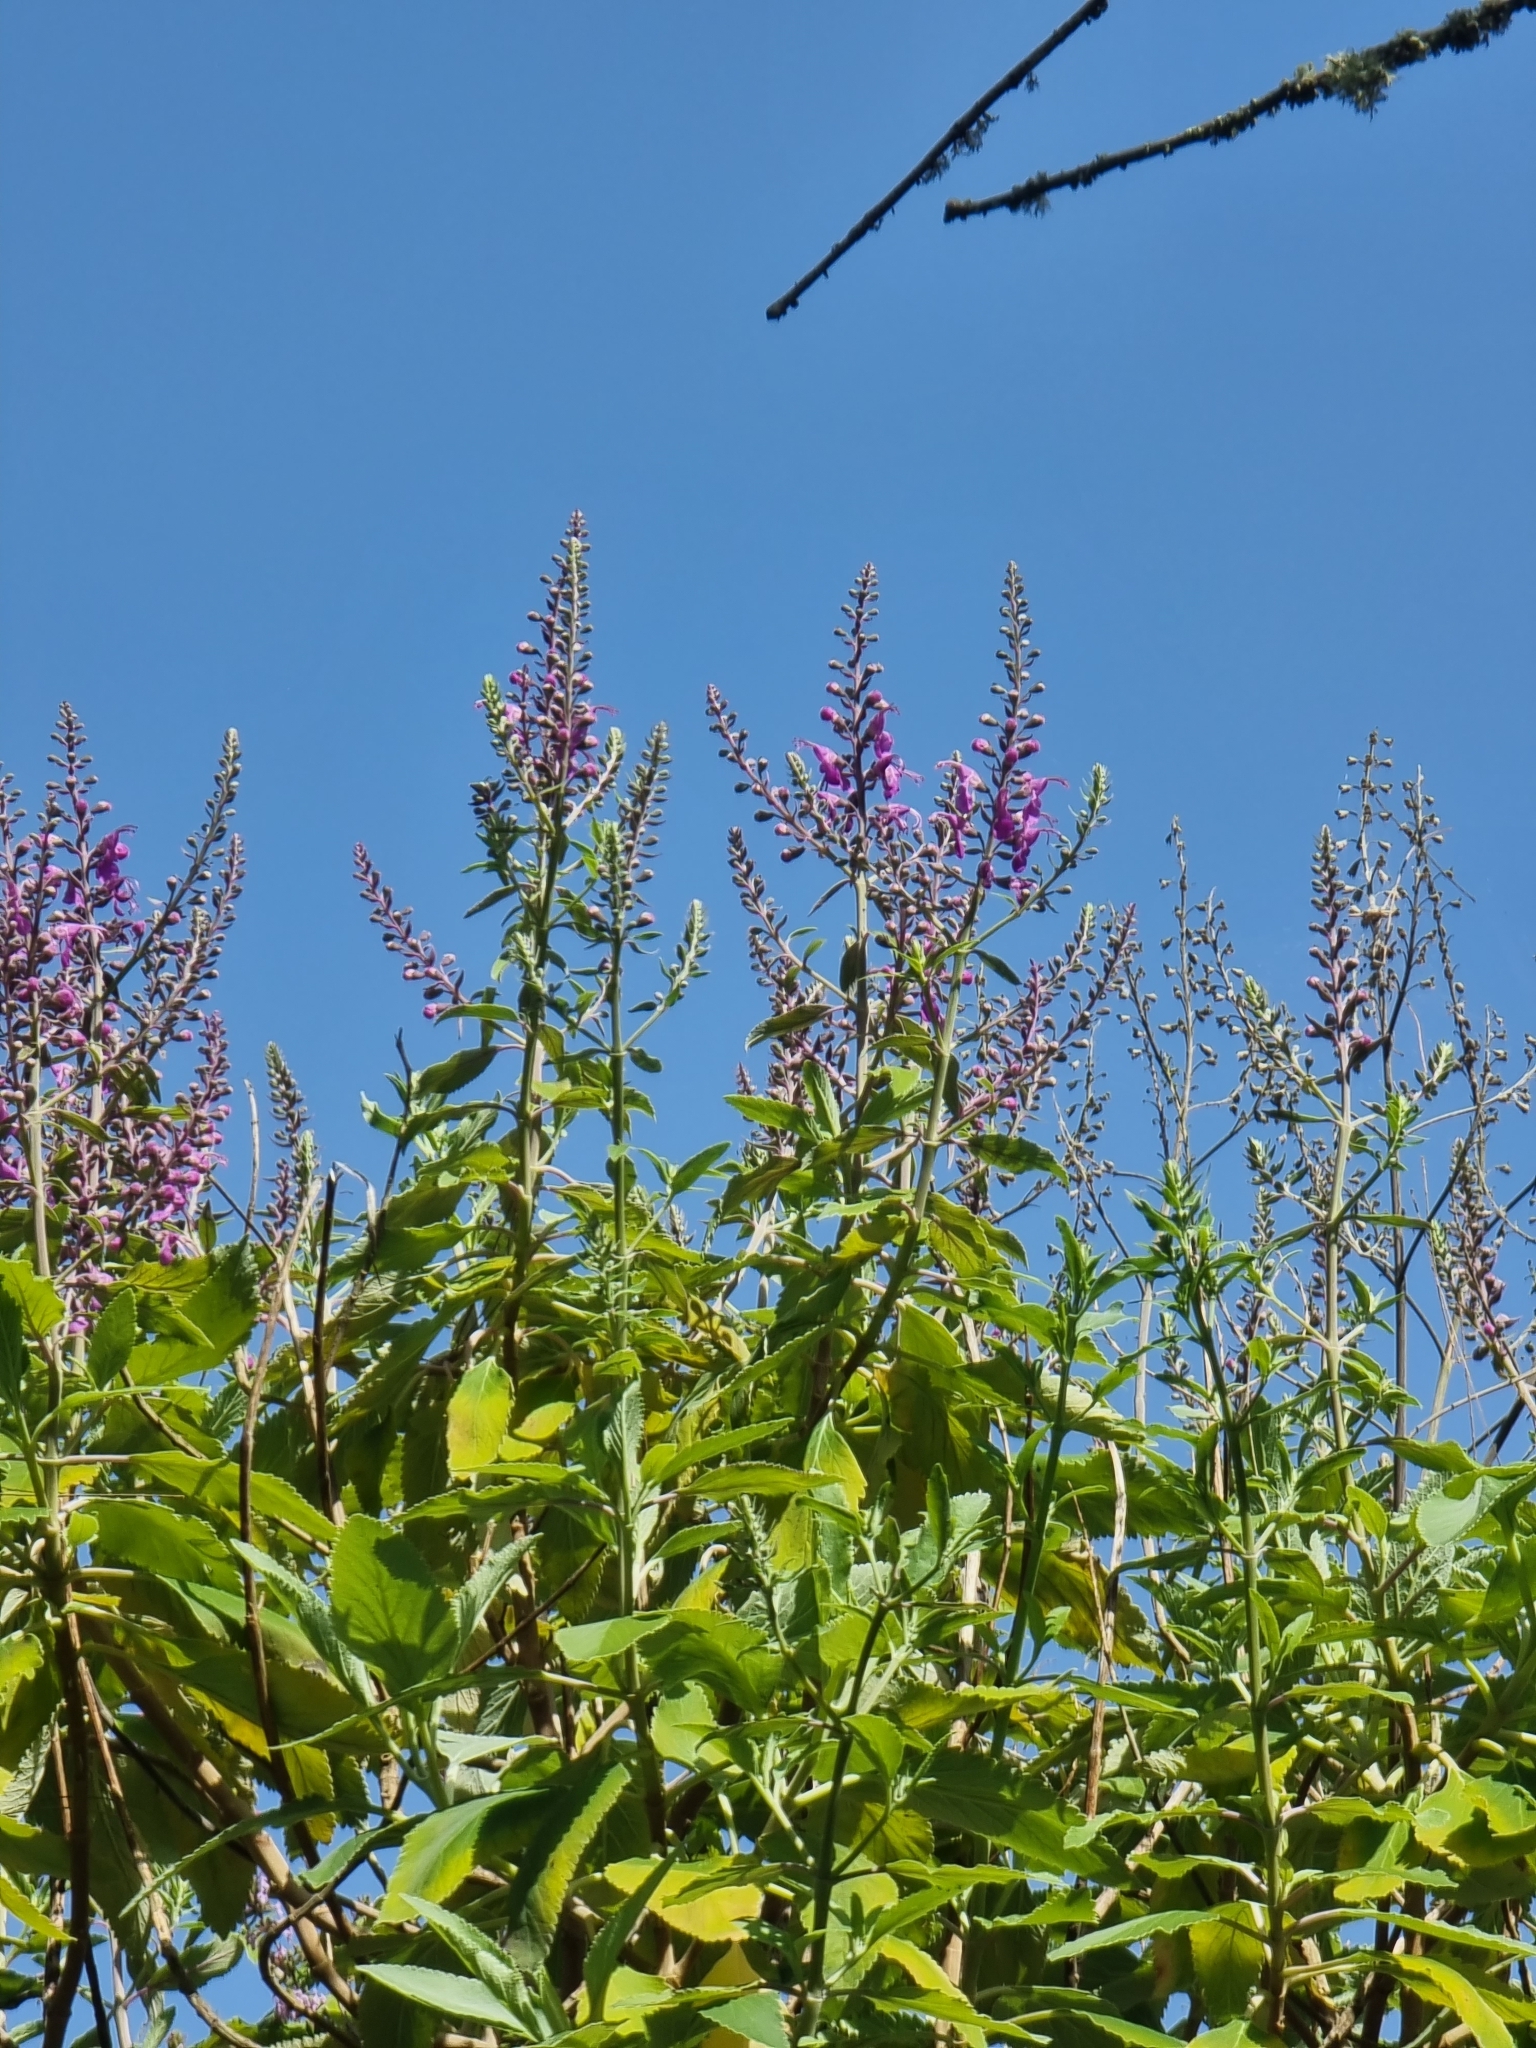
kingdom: Plantae
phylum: Tracheophyta
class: Magnoliopsida
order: Lamiales
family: Lamiaceae
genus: Teucrium
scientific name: Teucrium betonicum
